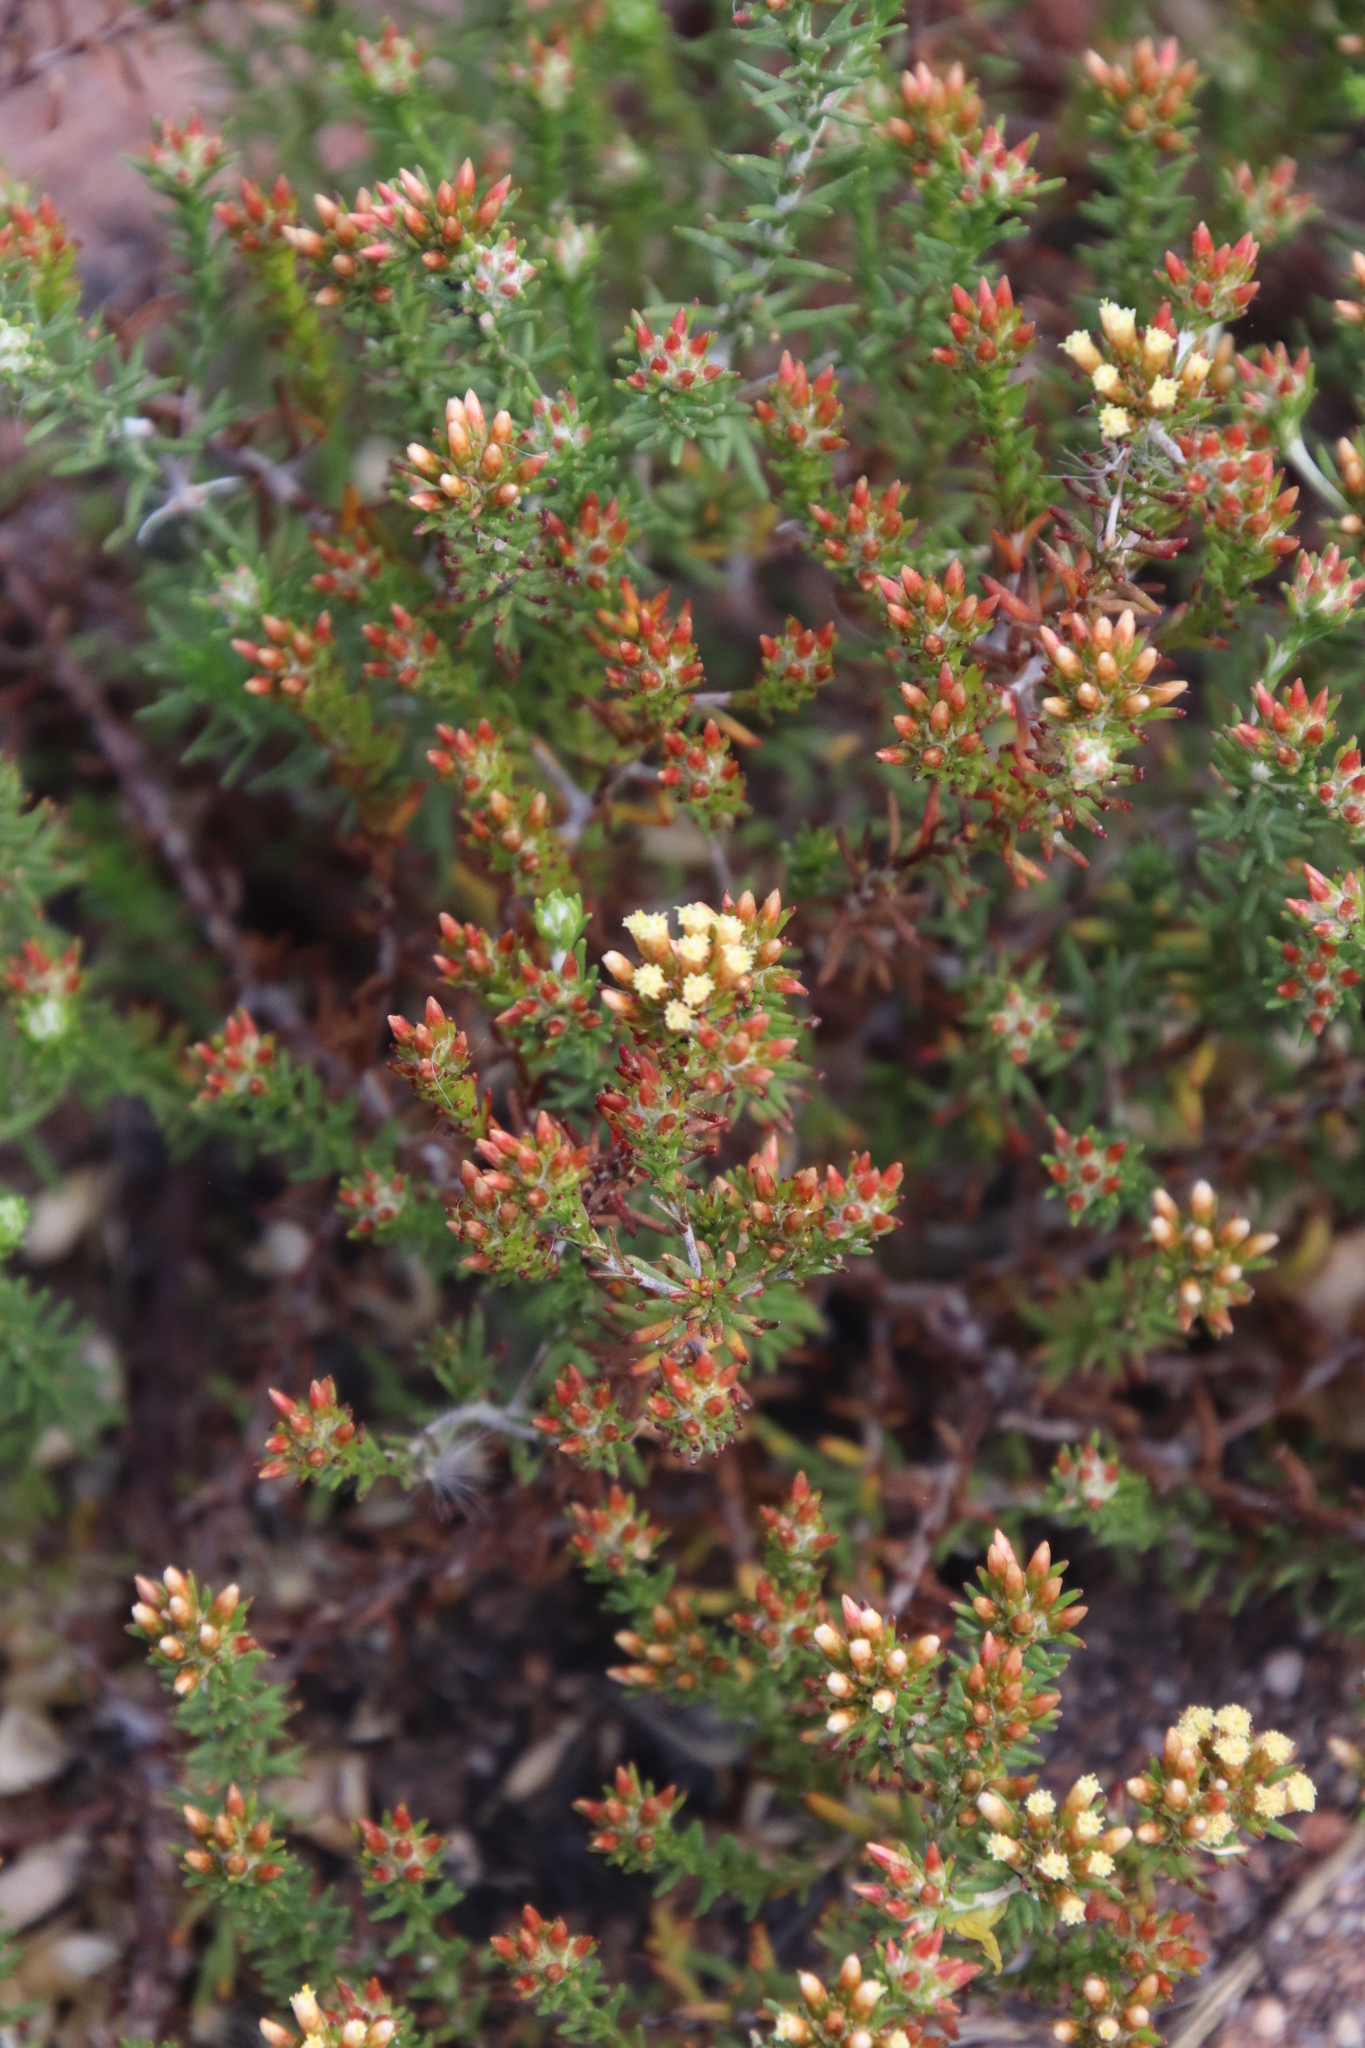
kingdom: Plantae
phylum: Tracheophyta
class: Magnoliopsida
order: Asterales
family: Asteraceae
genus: Helichrysum
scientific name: Helichrysum niveum
